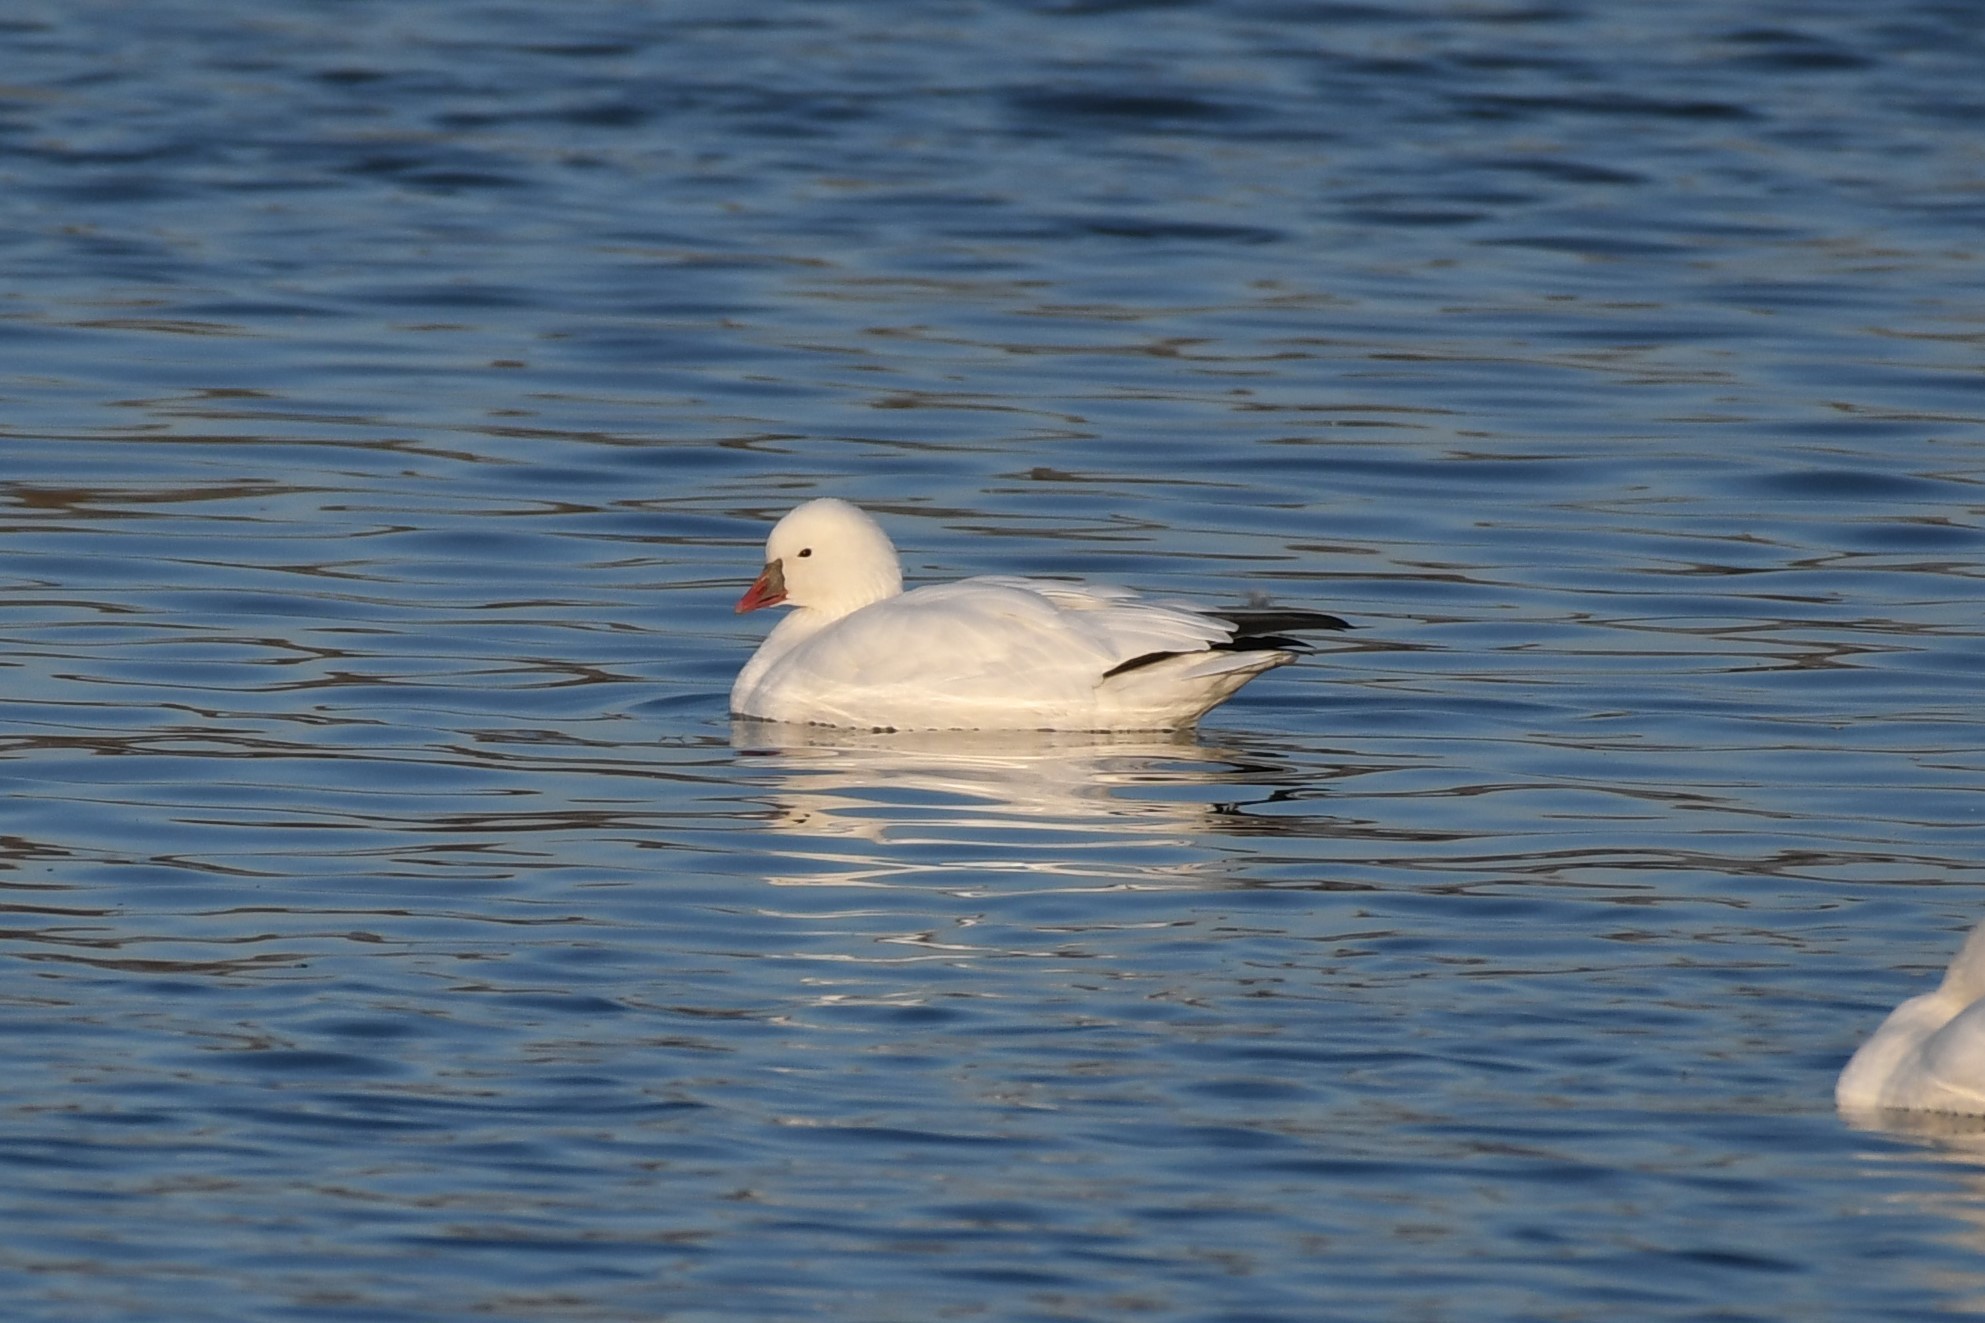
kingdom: Animalia
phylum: Chordata
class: Aves
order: Anseriformes
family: Anatidae
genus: Anser
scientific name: Anser rossii
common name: Ross's goose
